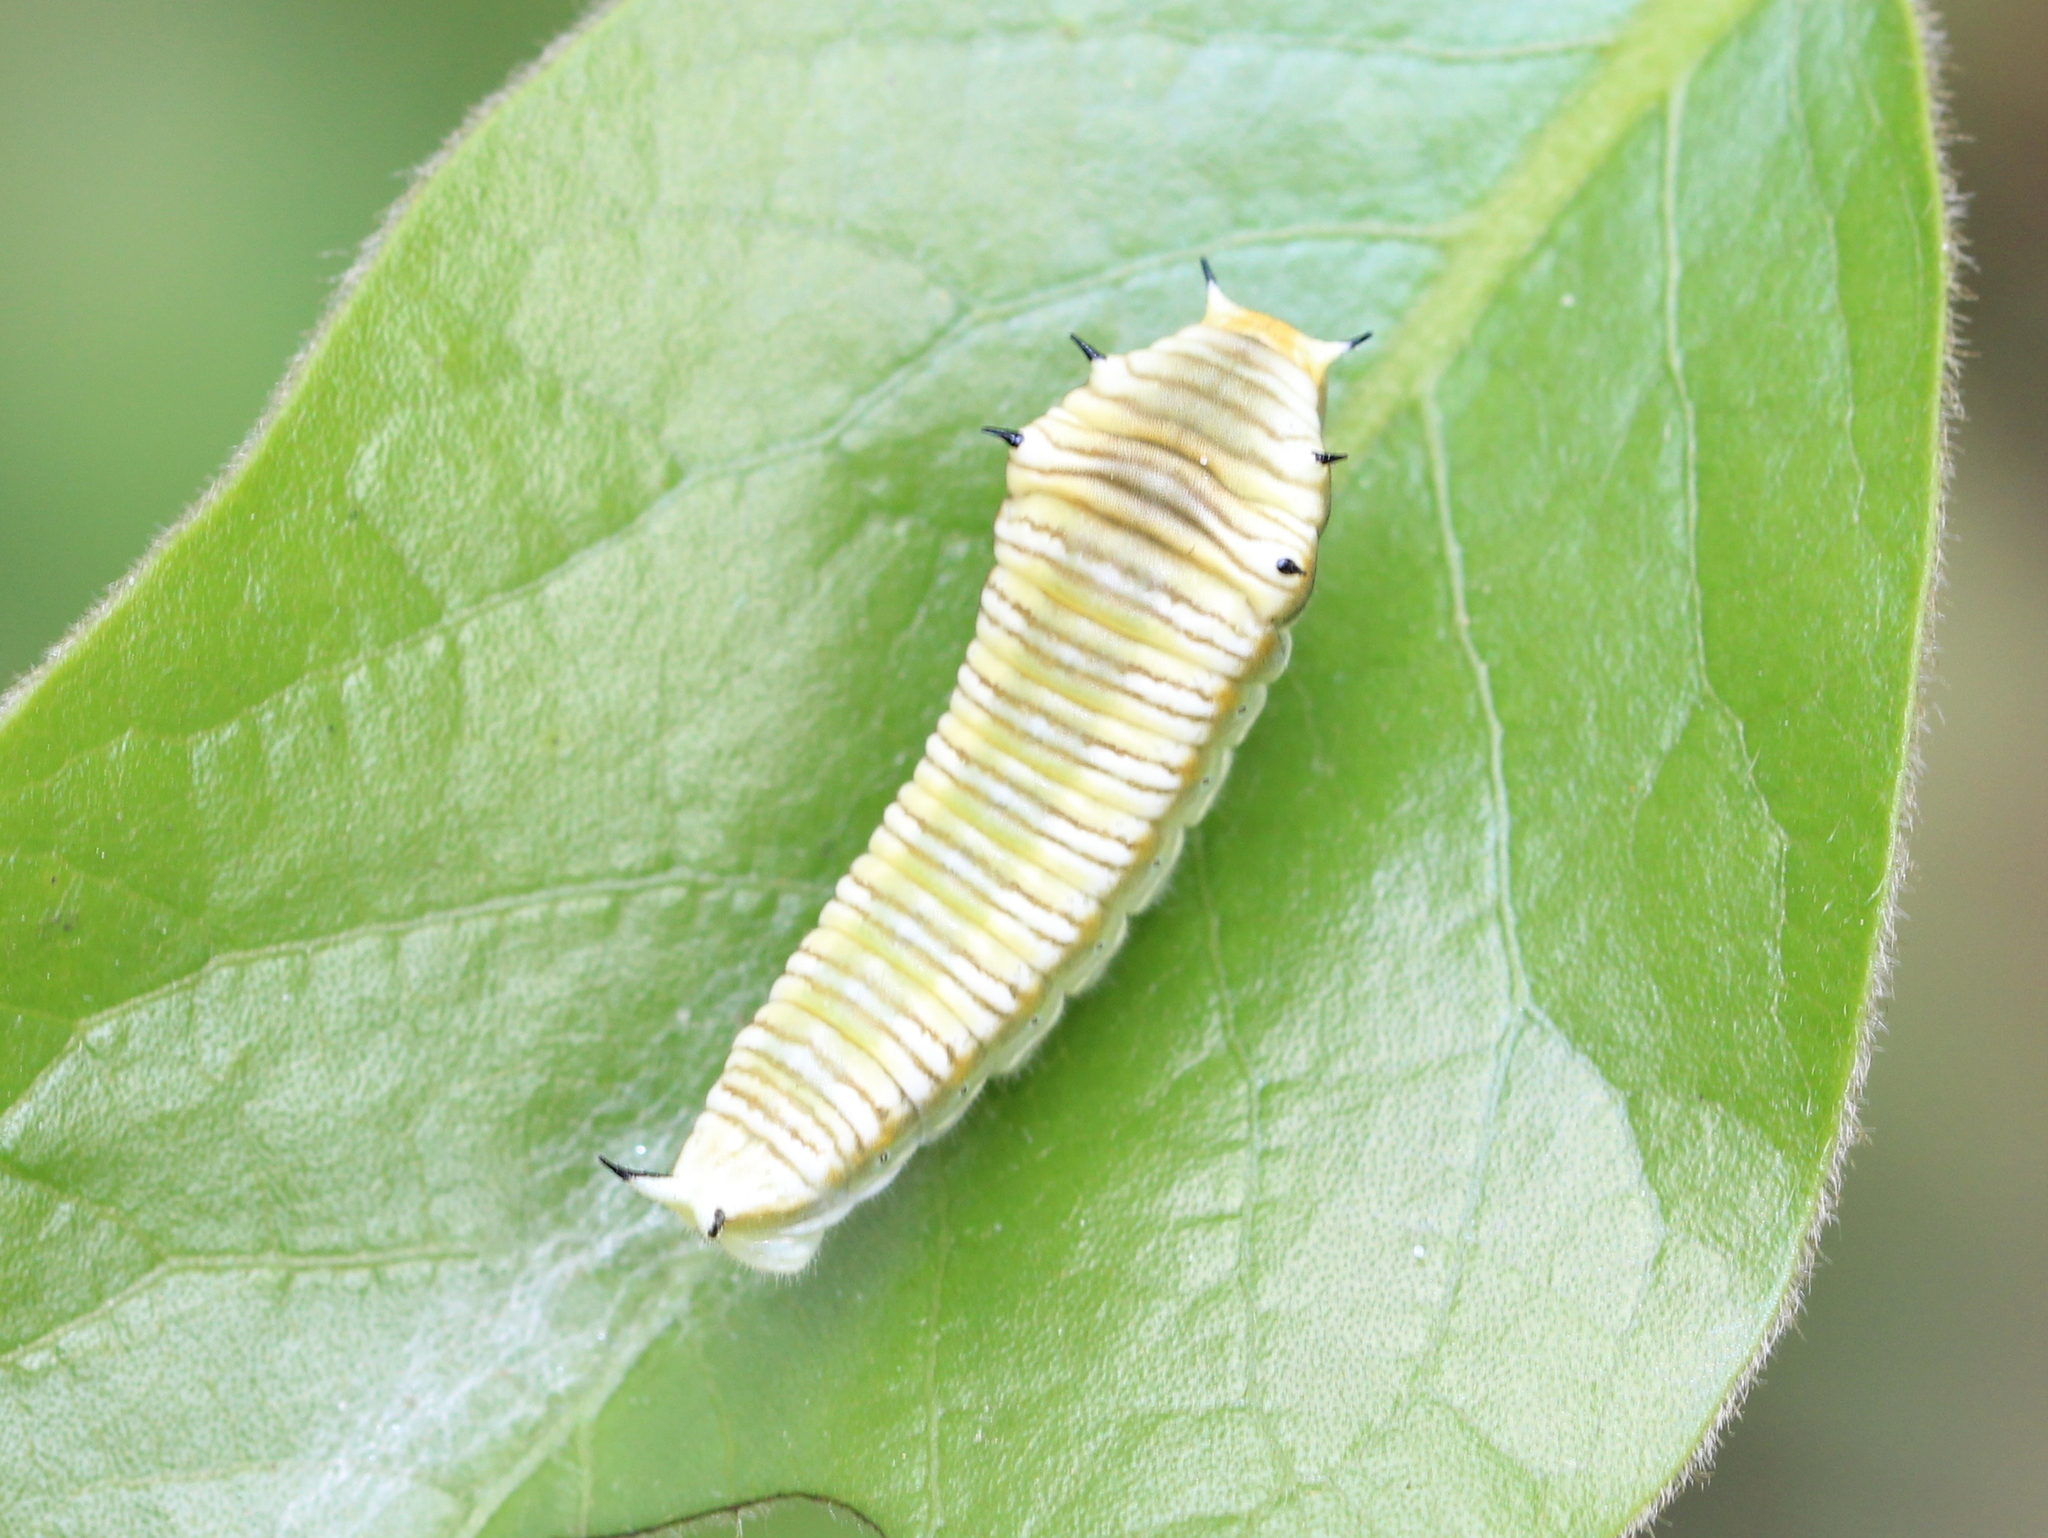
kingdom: Animalia
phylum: Arthropoda
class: Insecta
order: Lepidoptera
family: Papilionidae
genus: Graphium
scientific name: Graphium nomius
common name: Spot swordtail
